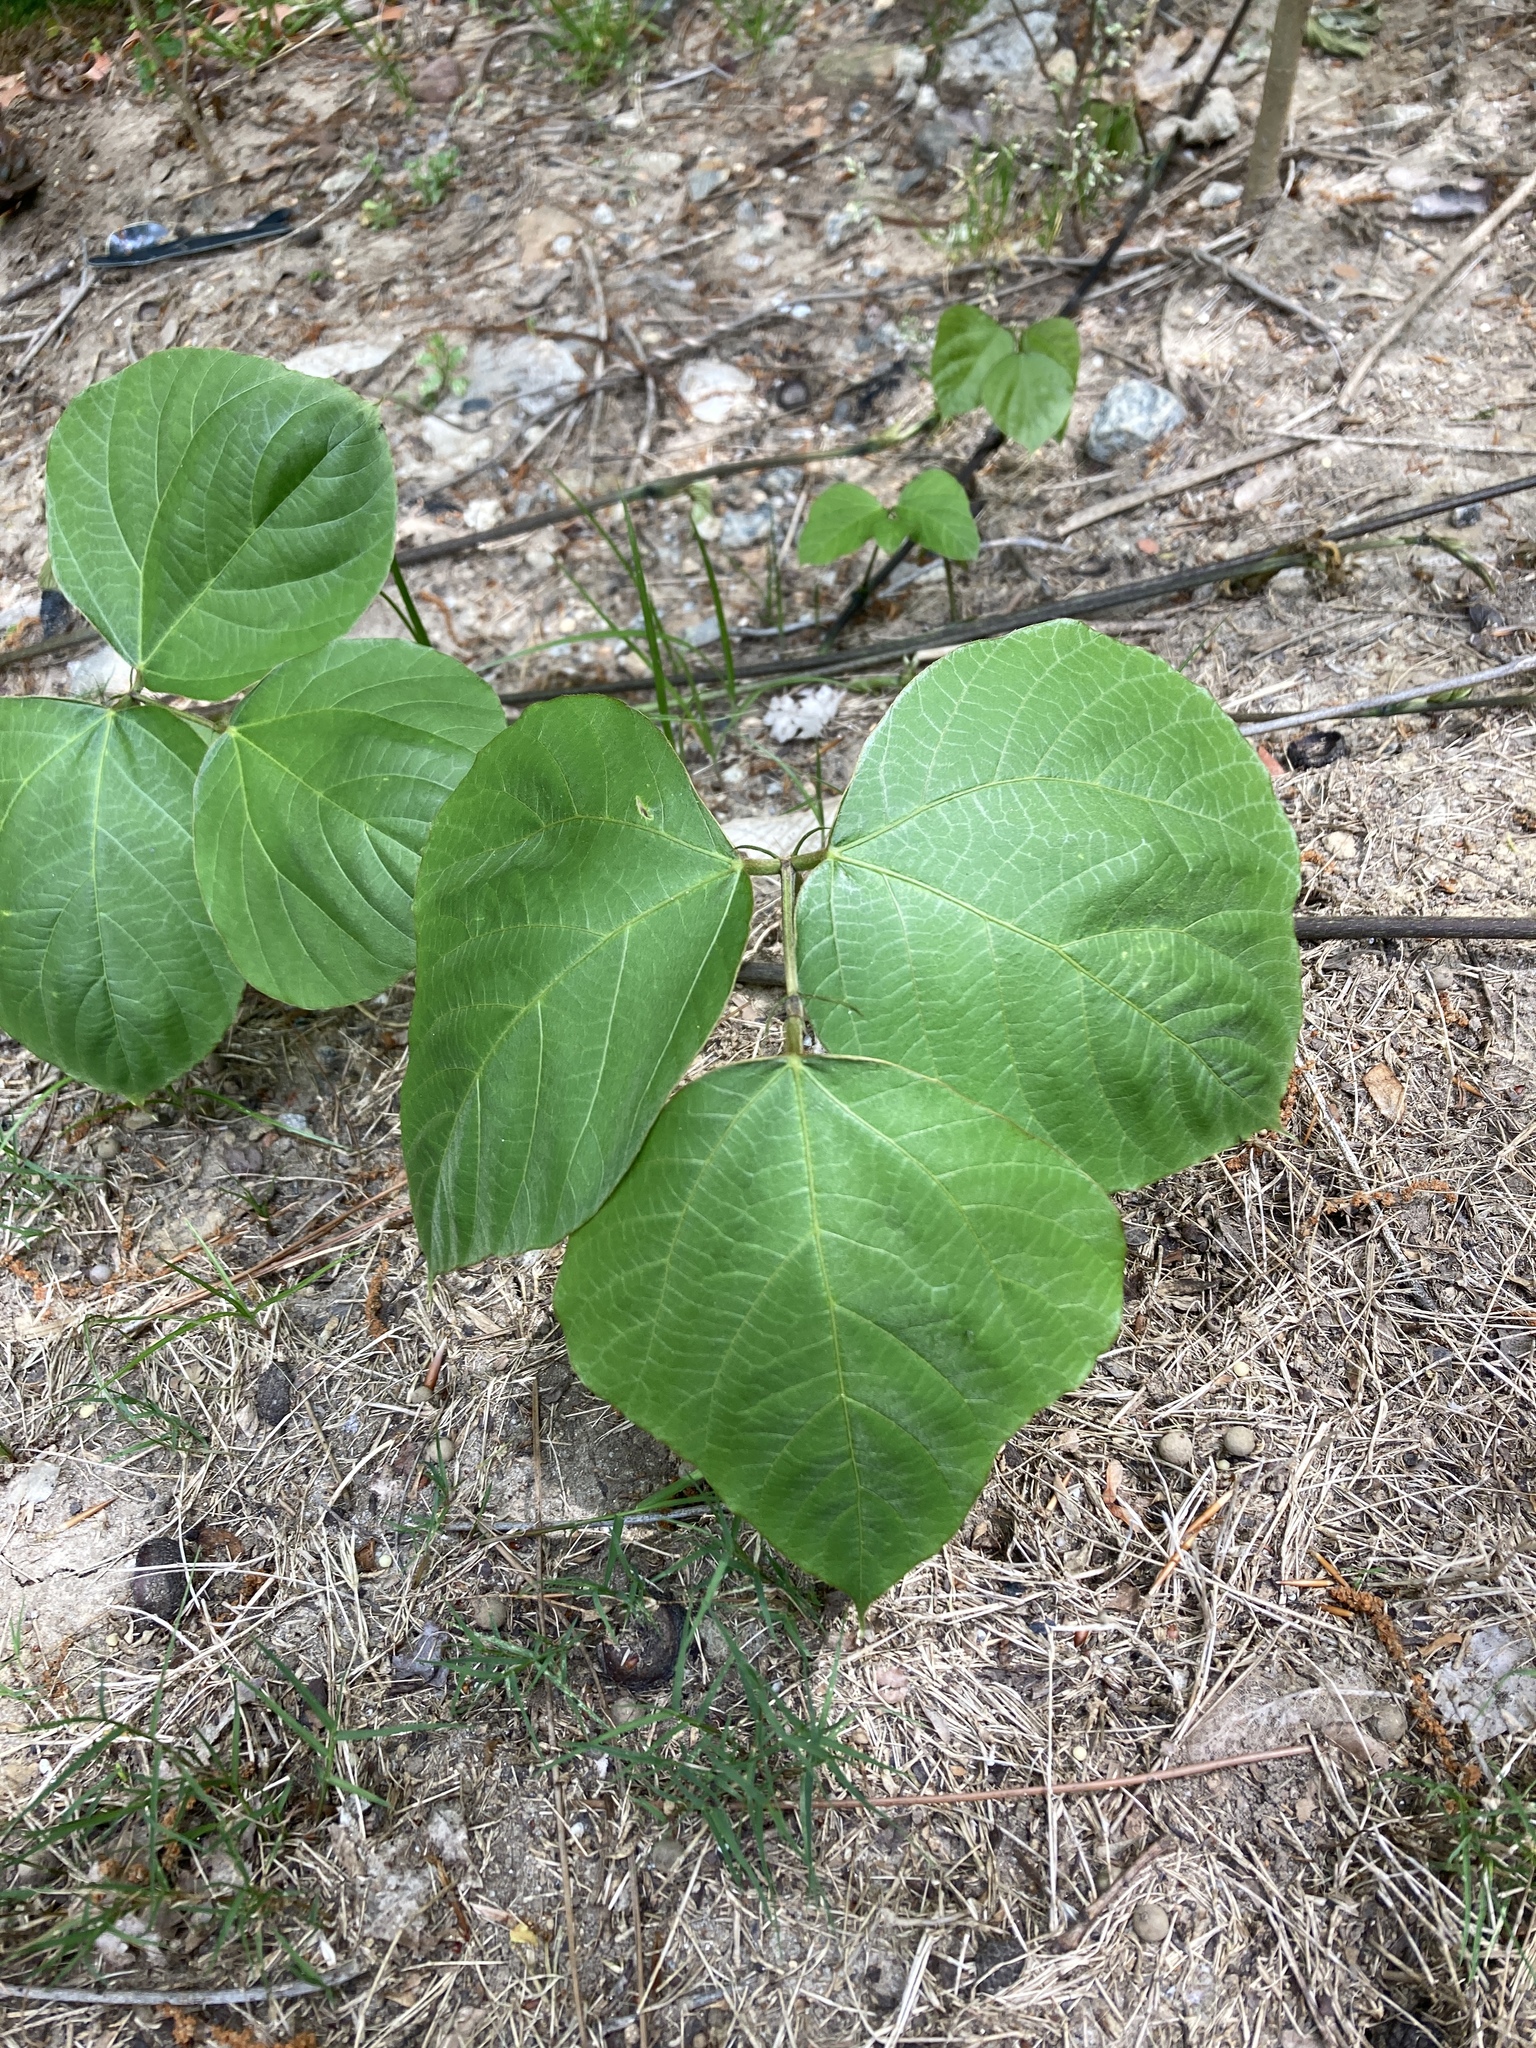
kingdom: Plantae
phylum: Tracheophyta
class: Magnoliopsida
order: Fabales
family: Fabaceae
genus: Pueraria
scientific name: Pueraria montana
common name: Kudzu
